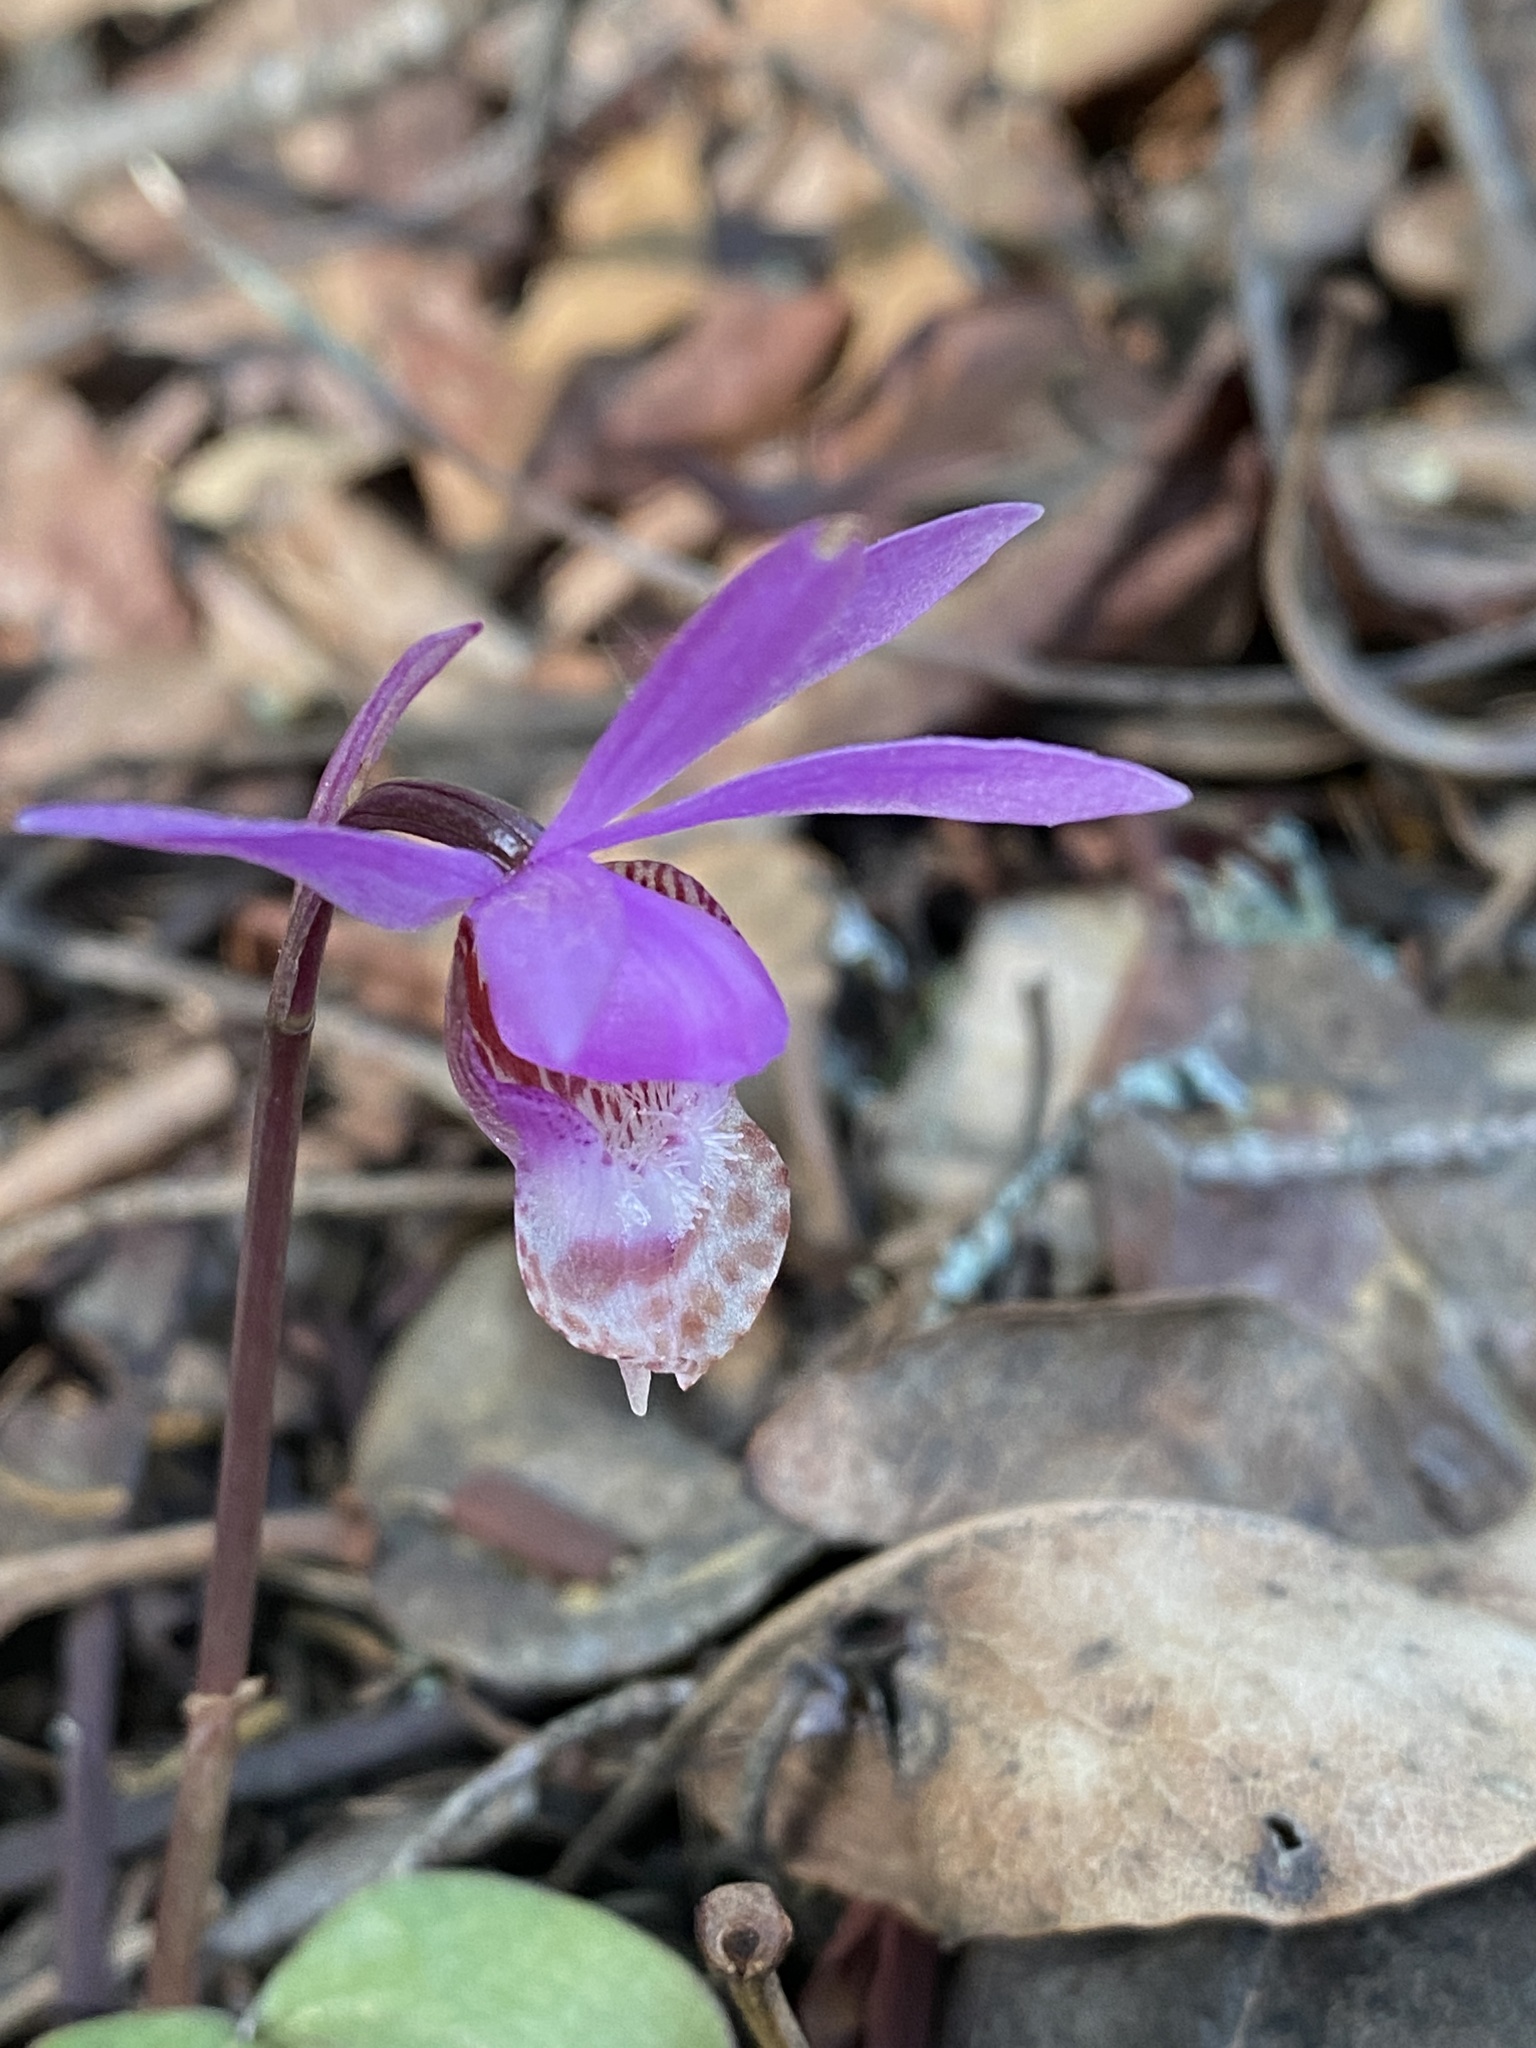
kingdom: Plantae
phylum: Tracheophyta
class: Liliopsida
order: Asparagales
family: Orchidaceae
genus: Calypso
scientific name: Calypso bulbosa
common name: Calypso
